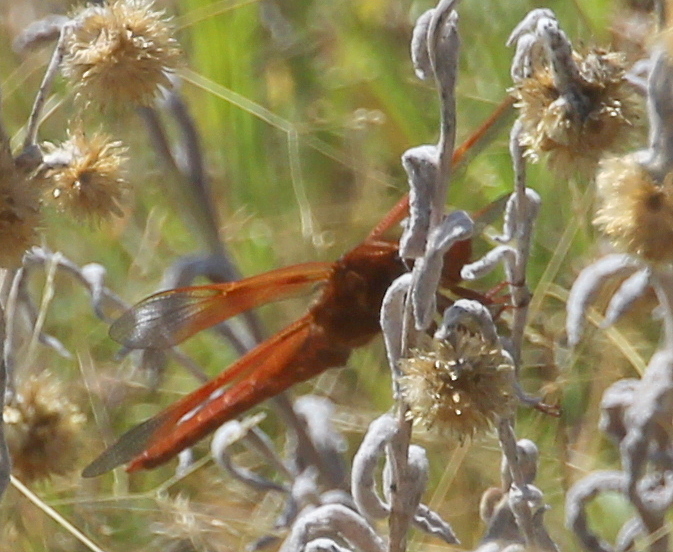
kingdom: Animalia
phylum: Arthropoda
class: Insecta
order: Odonata
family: Libellulidae
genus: Libellula
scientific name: Libellula saturata
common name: Flame skimmer
